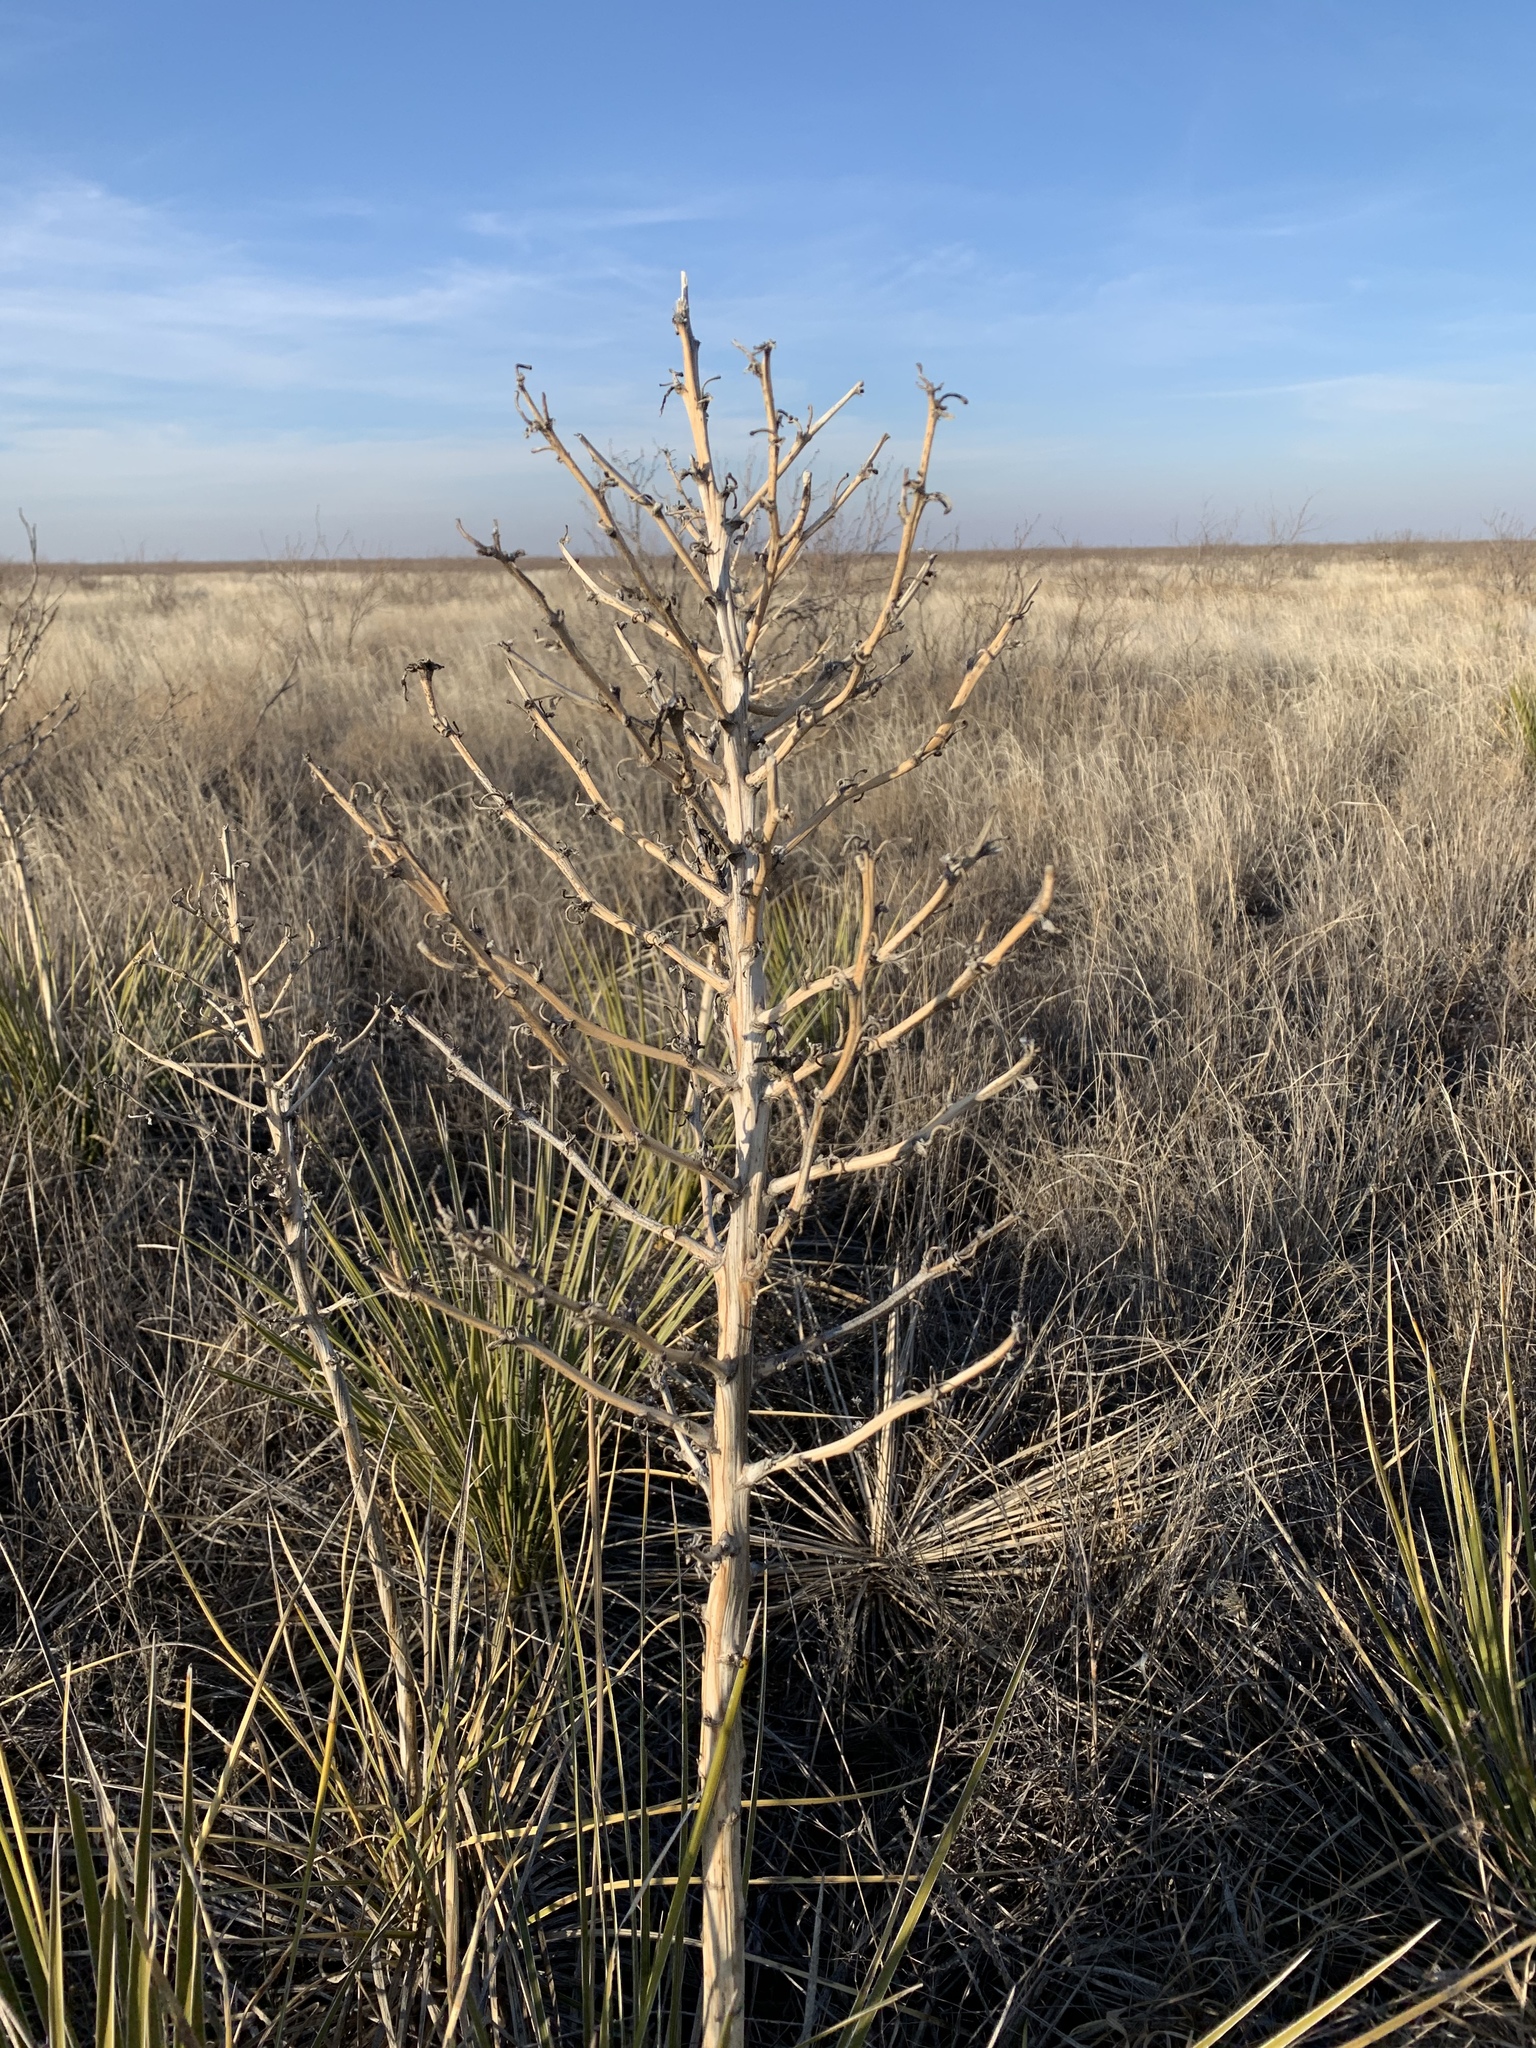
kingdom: Plantae
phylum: Tracheophyta
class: Liliopsida
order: Asparagales
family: Asparagaceae
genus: Yucca
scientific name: Yucca campestris
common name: Plains yucca
